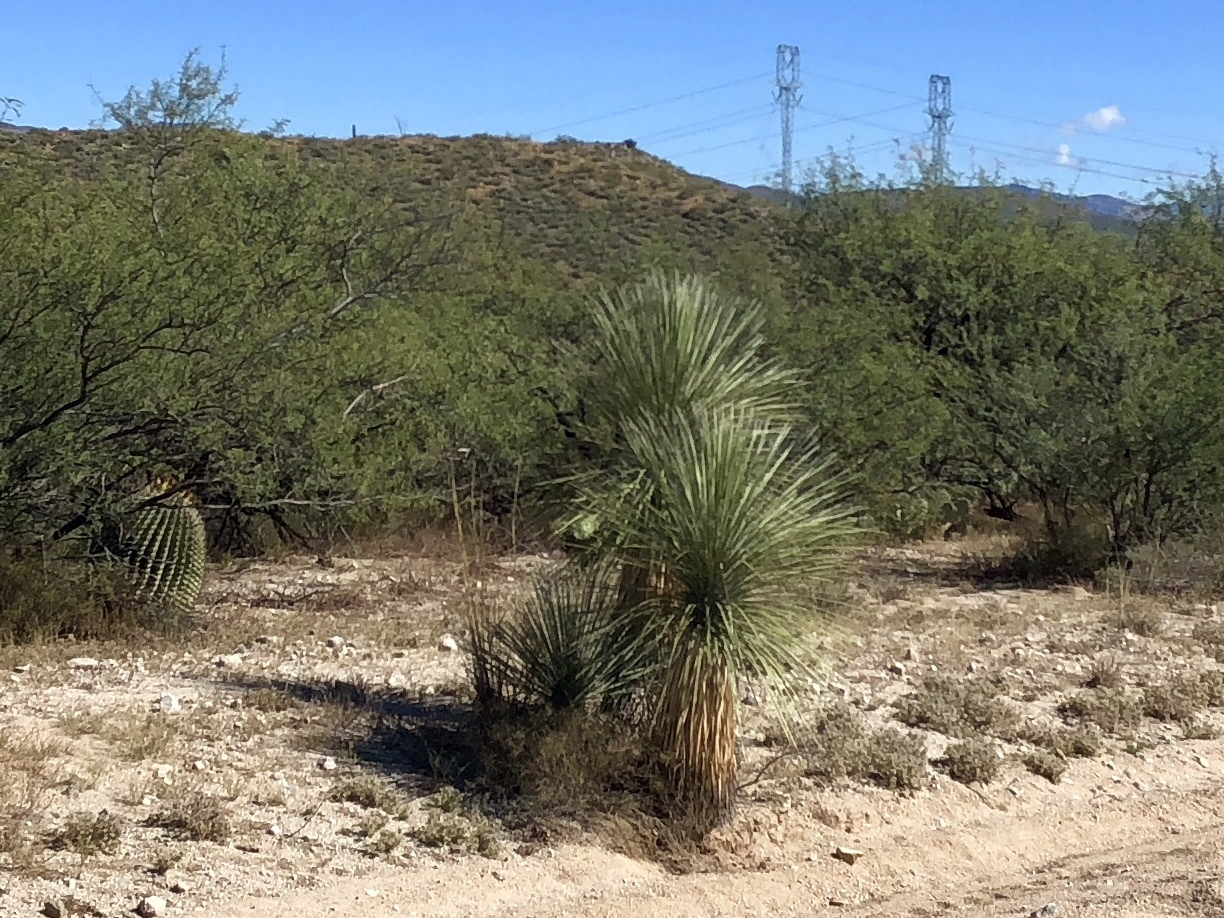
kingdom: Plantae
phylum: Tracheophyta
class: Liliopsida
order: Asparagales
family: Asparagaceae
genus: Yucca
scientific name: Yucca elata
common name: Palmella
